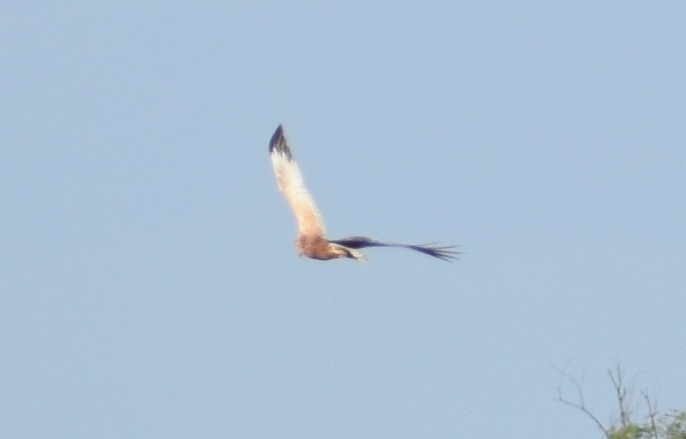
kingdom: Animalia
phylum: Chordata
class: Aves
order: Accipitriformes
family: Accipitridae
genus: Circus
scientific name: Circus aeruginosus
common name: Western marsh harrier
